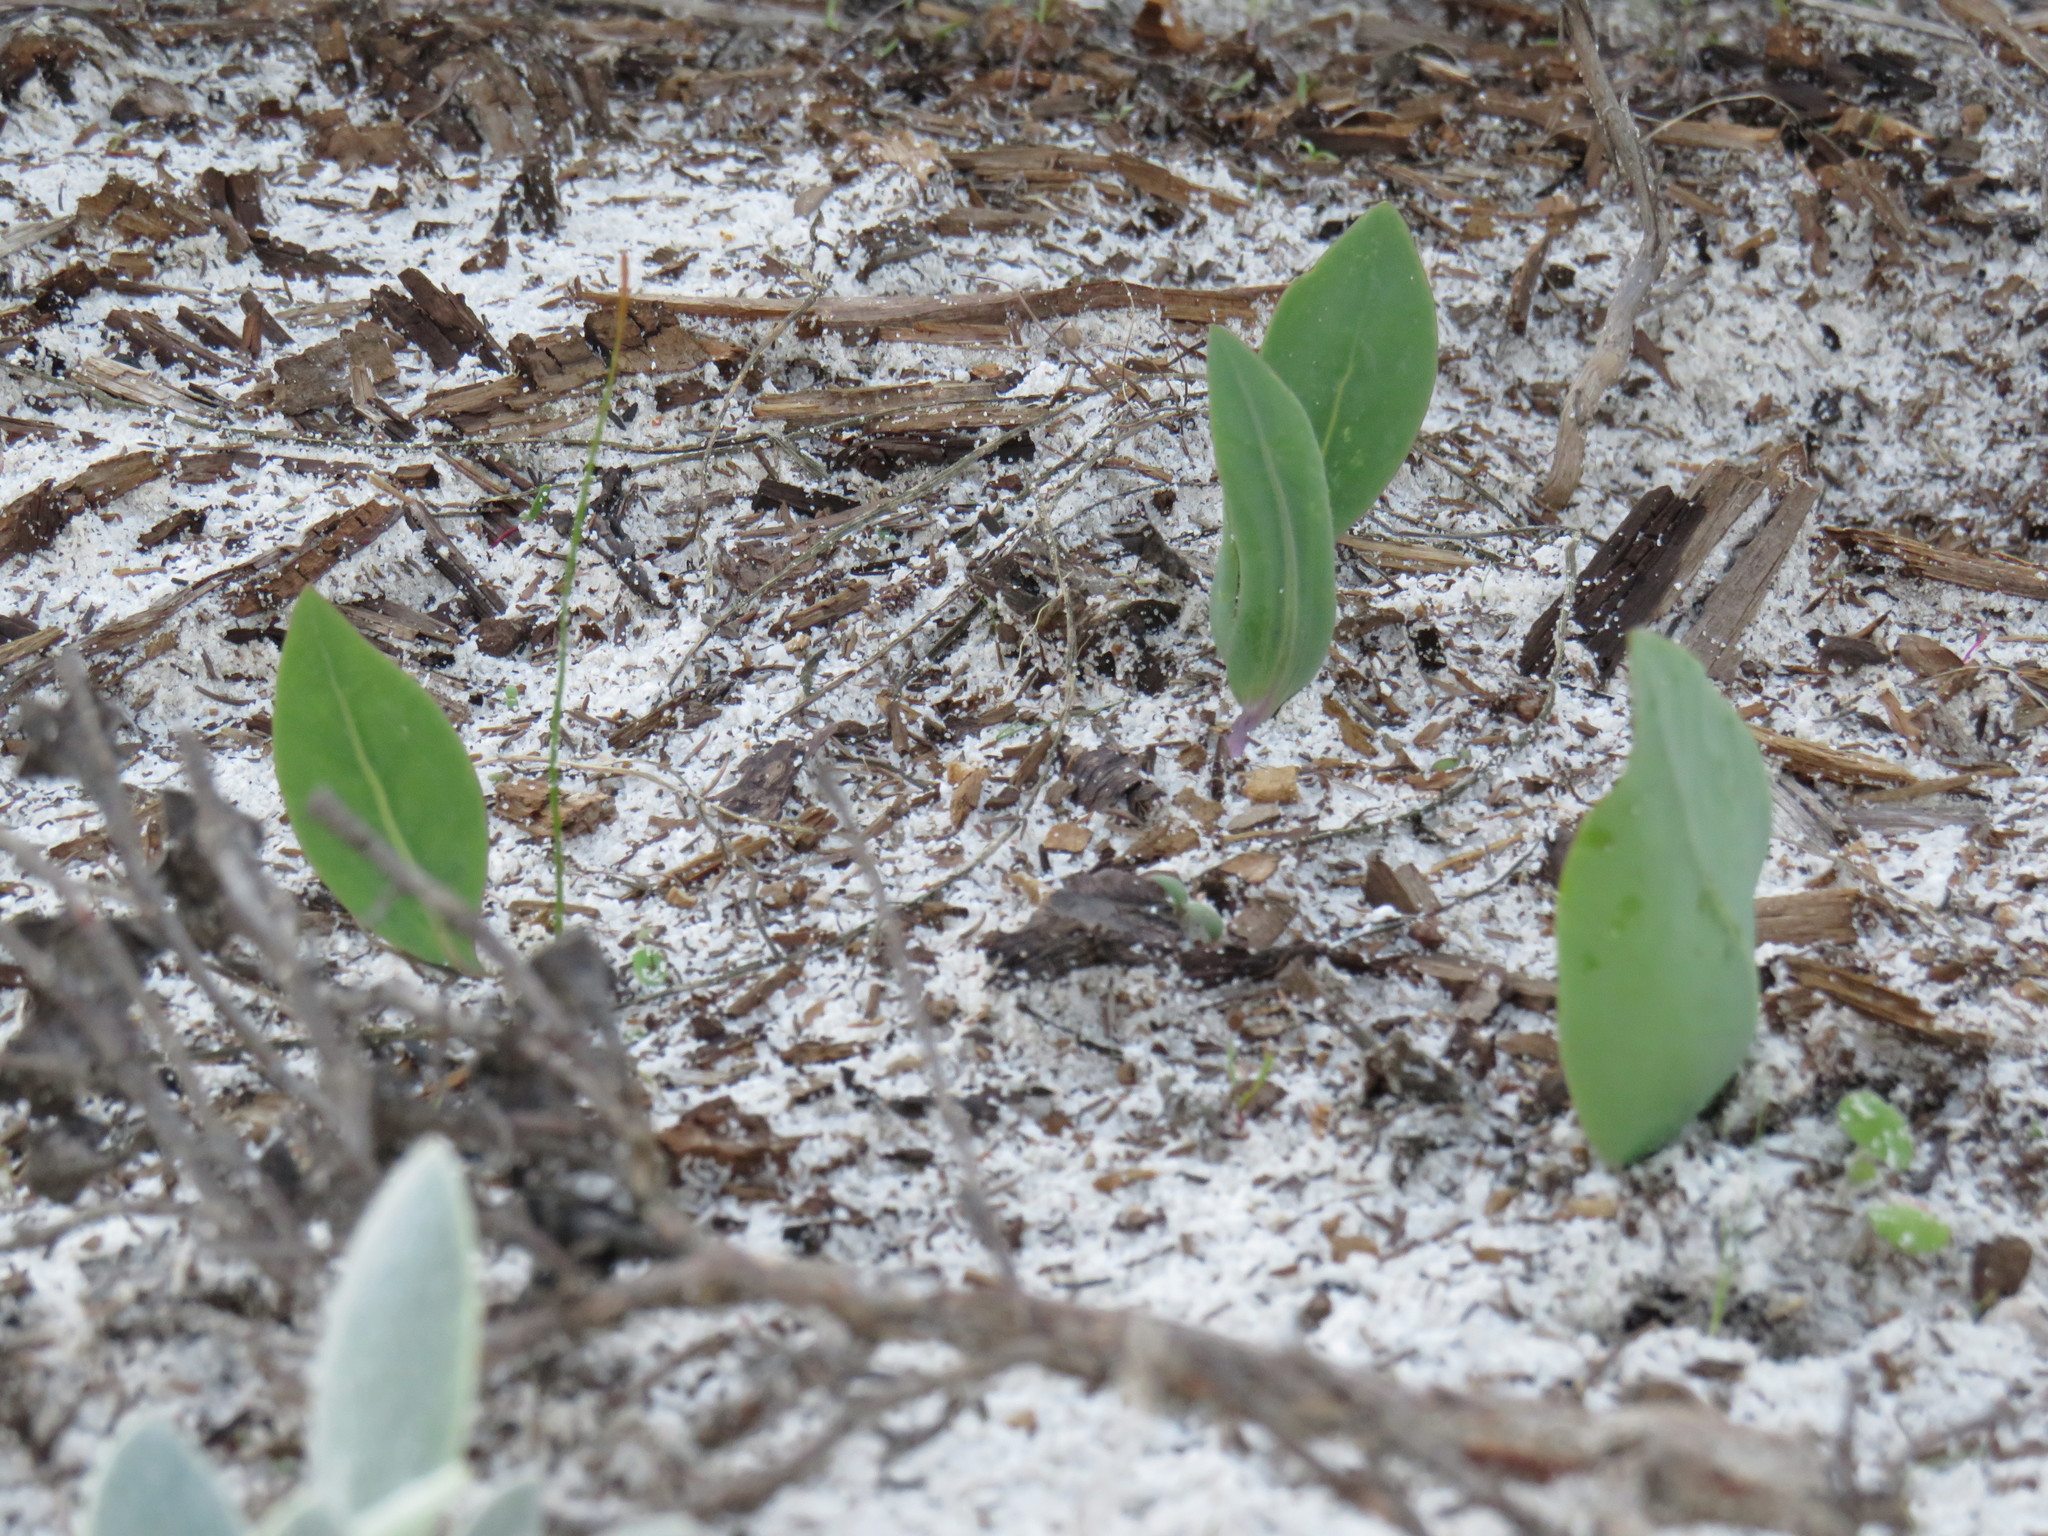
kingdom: Plantae
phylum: Tracheophyta
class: Magnoliopsida
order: Asterales
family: Asteraceae
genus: Othonna
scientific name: Othonna bulbosa
